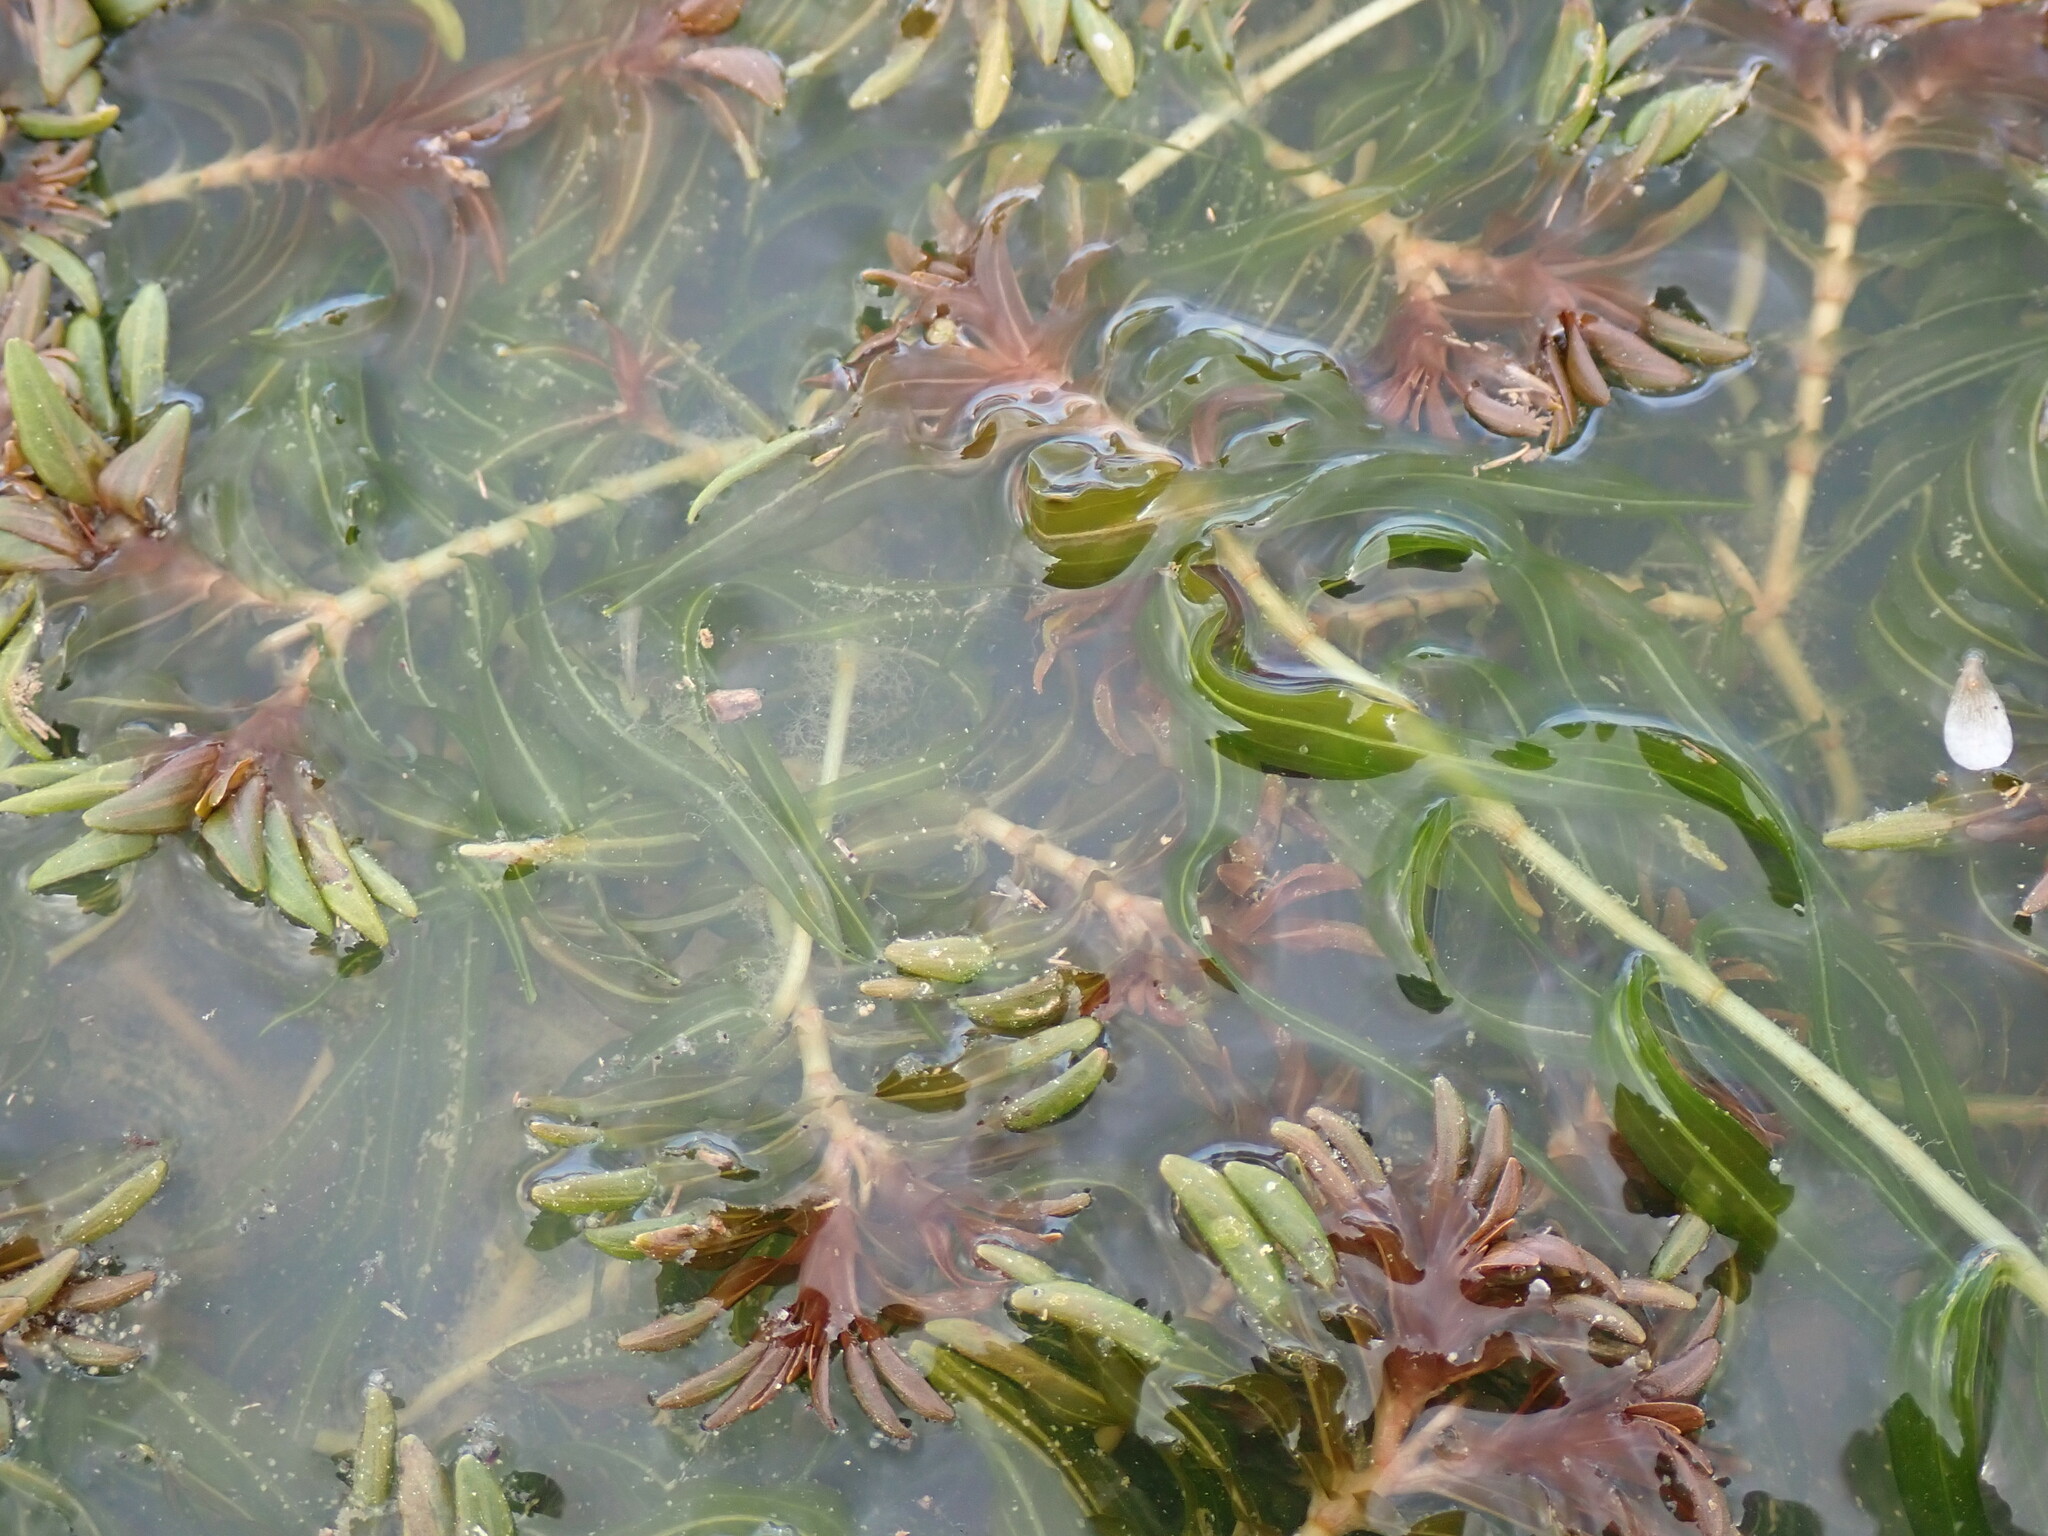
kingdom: Plantae
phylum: Tracheophyta
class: Liliopsida
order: Alismatales
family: Potamogetonaceae
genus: Groenlandia
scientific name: Groenlandia densa
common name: Opposite-leaved pondweed
